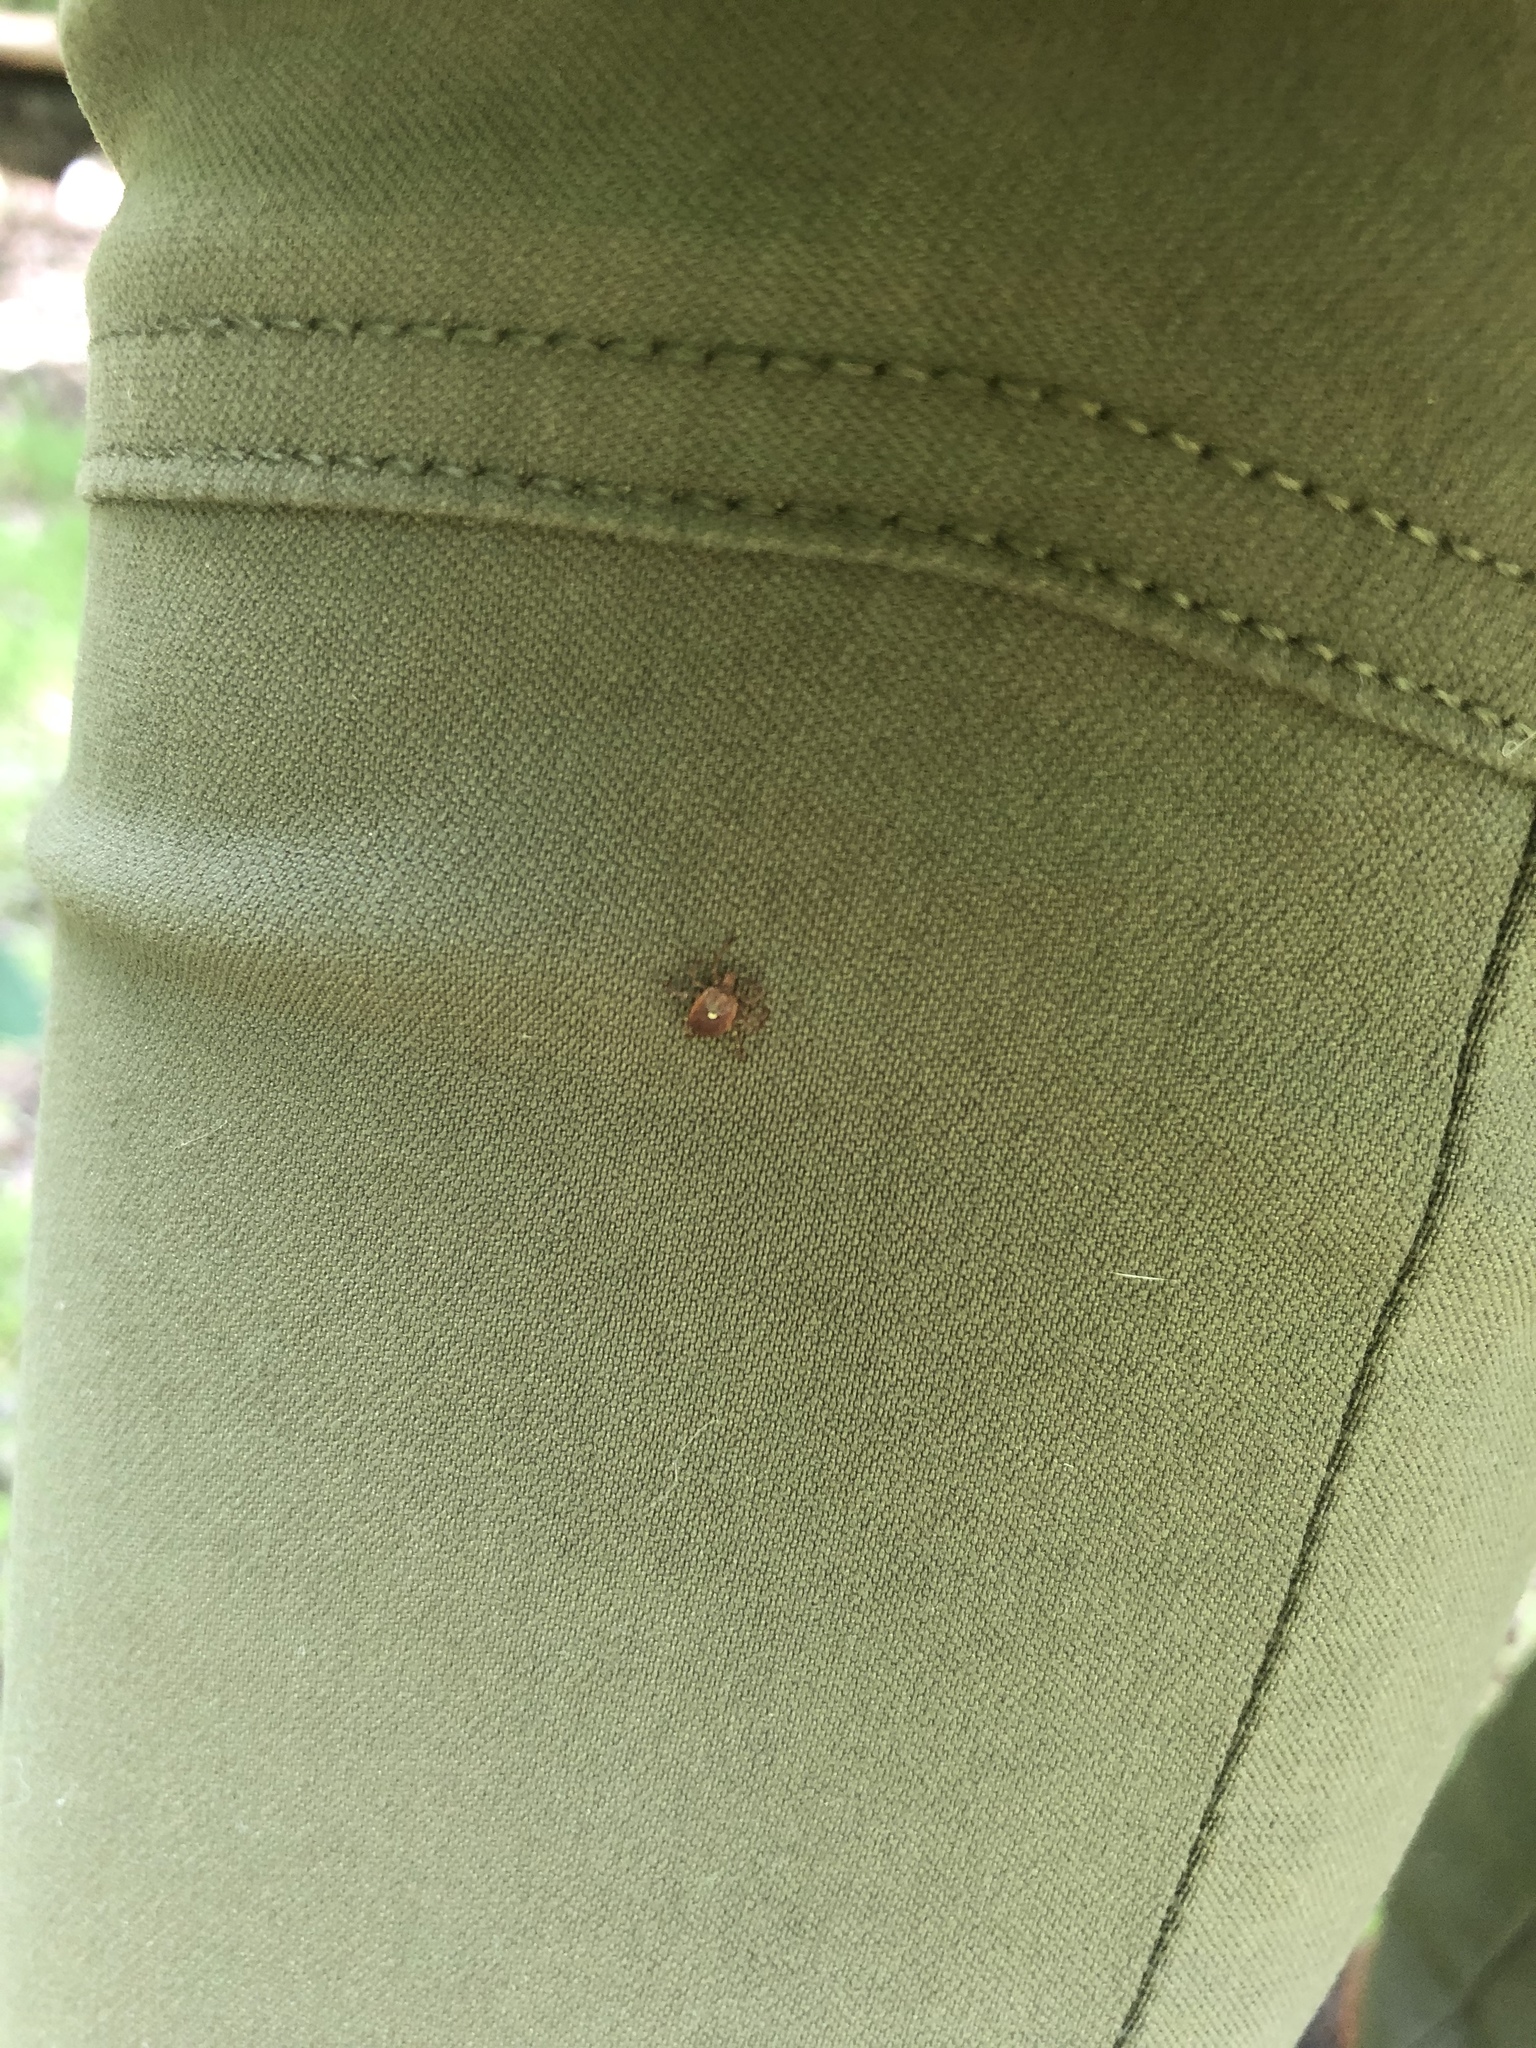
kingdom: Animalia
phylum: Arthropoda
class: Arachnida
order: Ixodida
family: Ixodidae
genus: Amblyomma
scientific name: Amblyomma americanum
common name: Lone star tick
